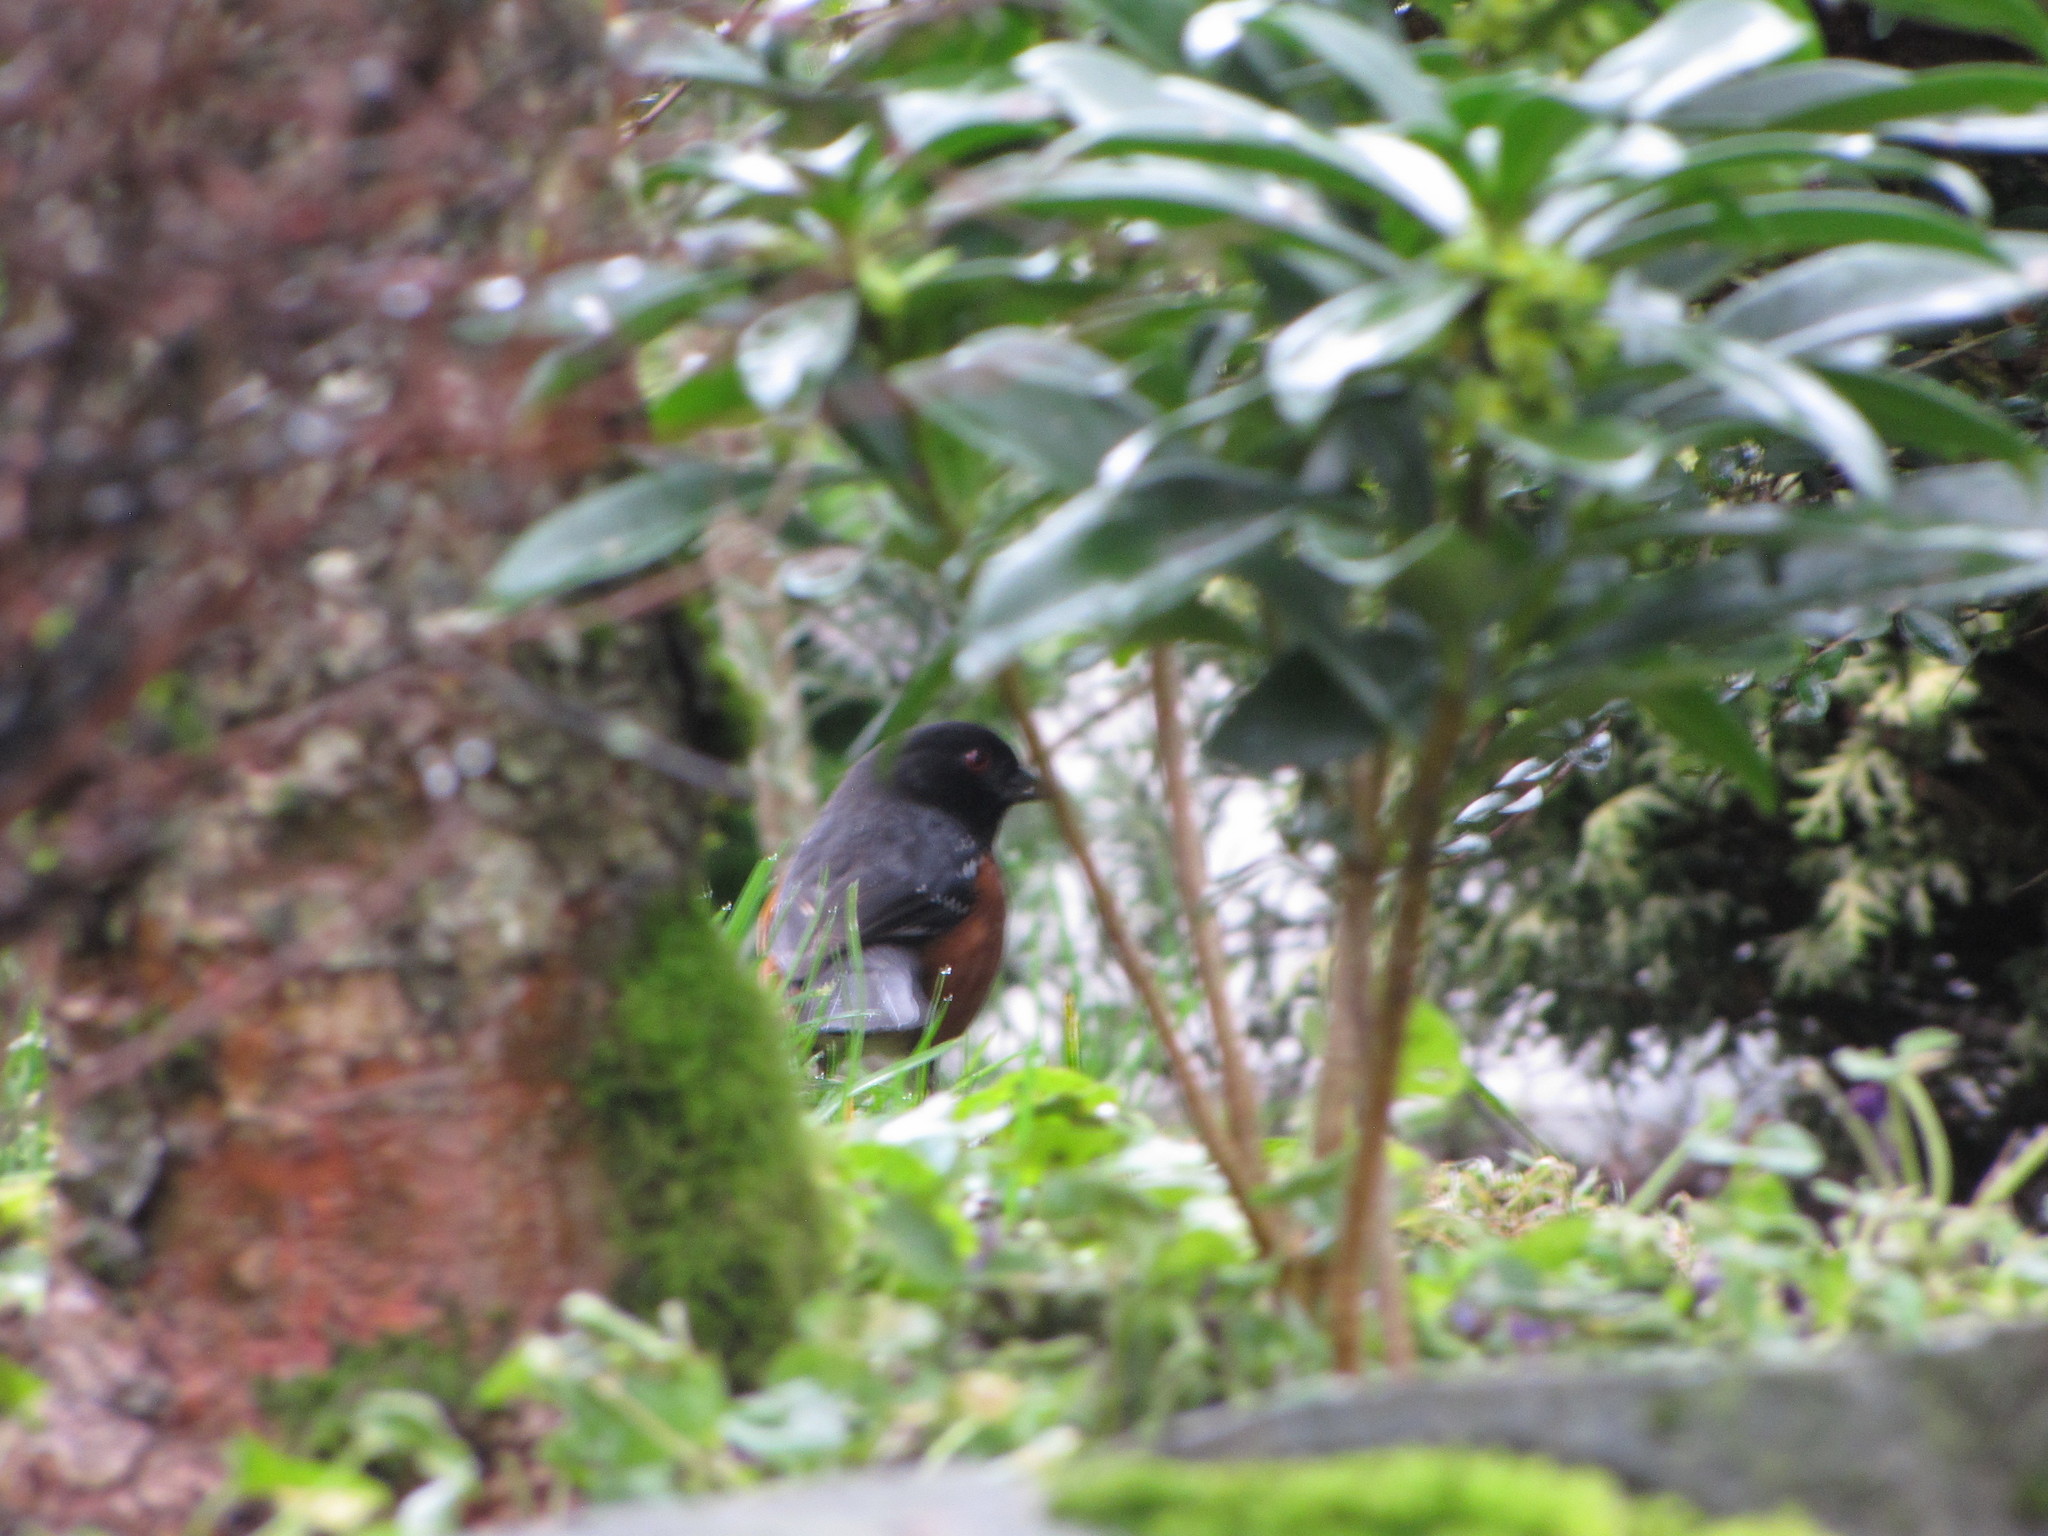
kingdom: Animalia
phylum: Chordata
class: Aves
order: Passeriformes
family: Passerellidae
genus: Pipilo
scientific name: Pipilo maculatus
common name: Spotted towhee
